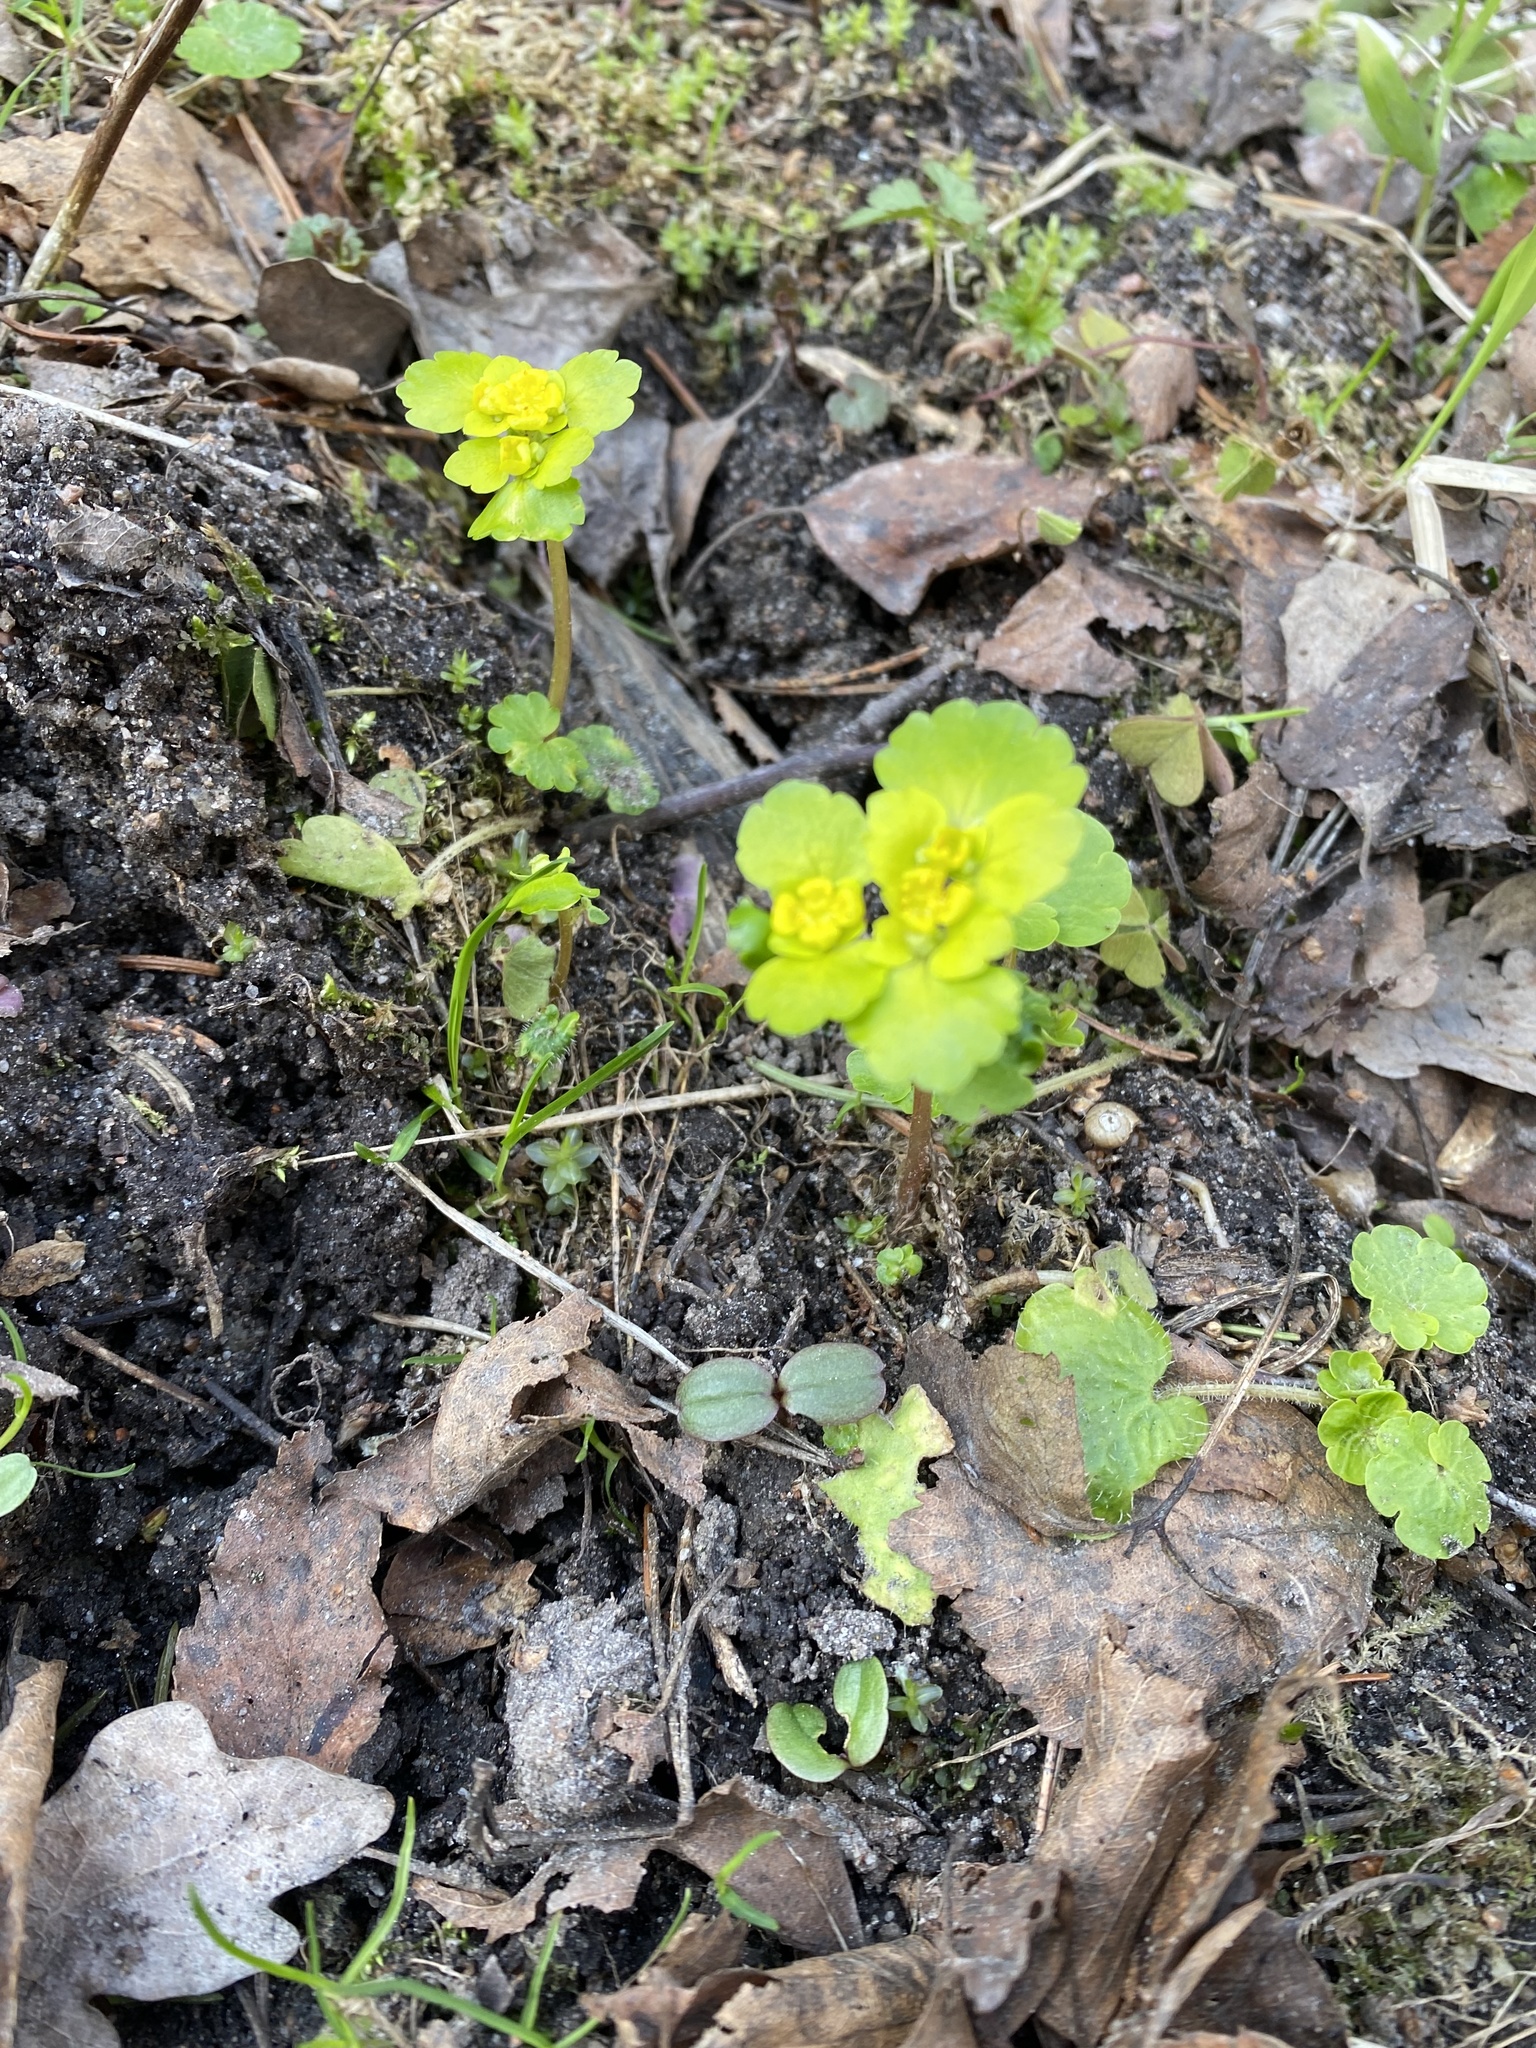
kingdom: Plantae
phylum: Tracheophyta
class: Magnoliopsida
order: Saxifragales
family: Saxifragaceae
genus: Chrysosplenium
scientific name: Chrysosplenium alternifolium
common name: Alternate-leaved golden-saxifrage
